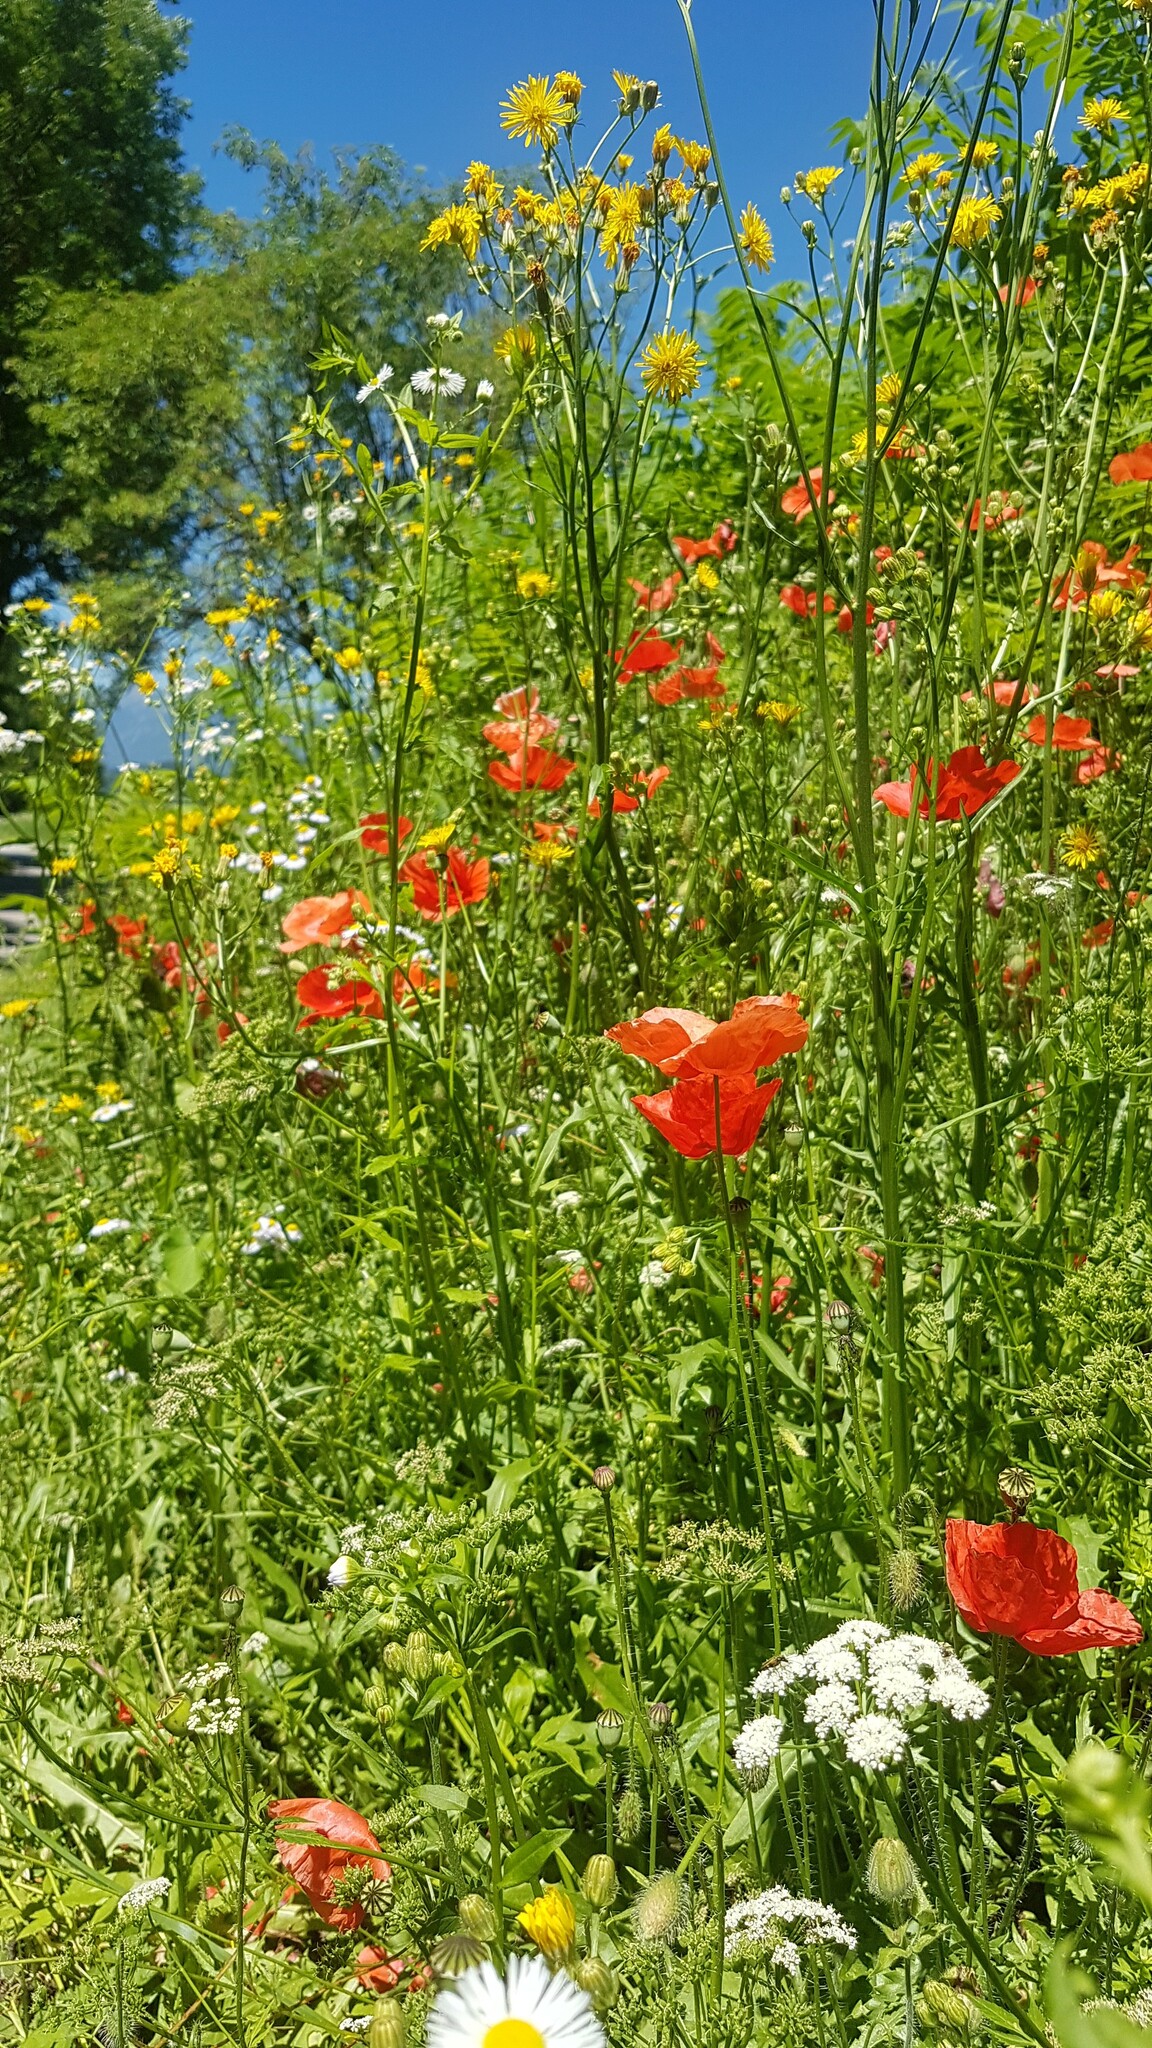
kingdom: Plantae
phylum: Tracheophyta
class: Magnoliopsida
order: Ranunculales
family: Papaveraceae
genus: Papaver
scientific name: Papaver rhoeas
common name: Corn poppy
